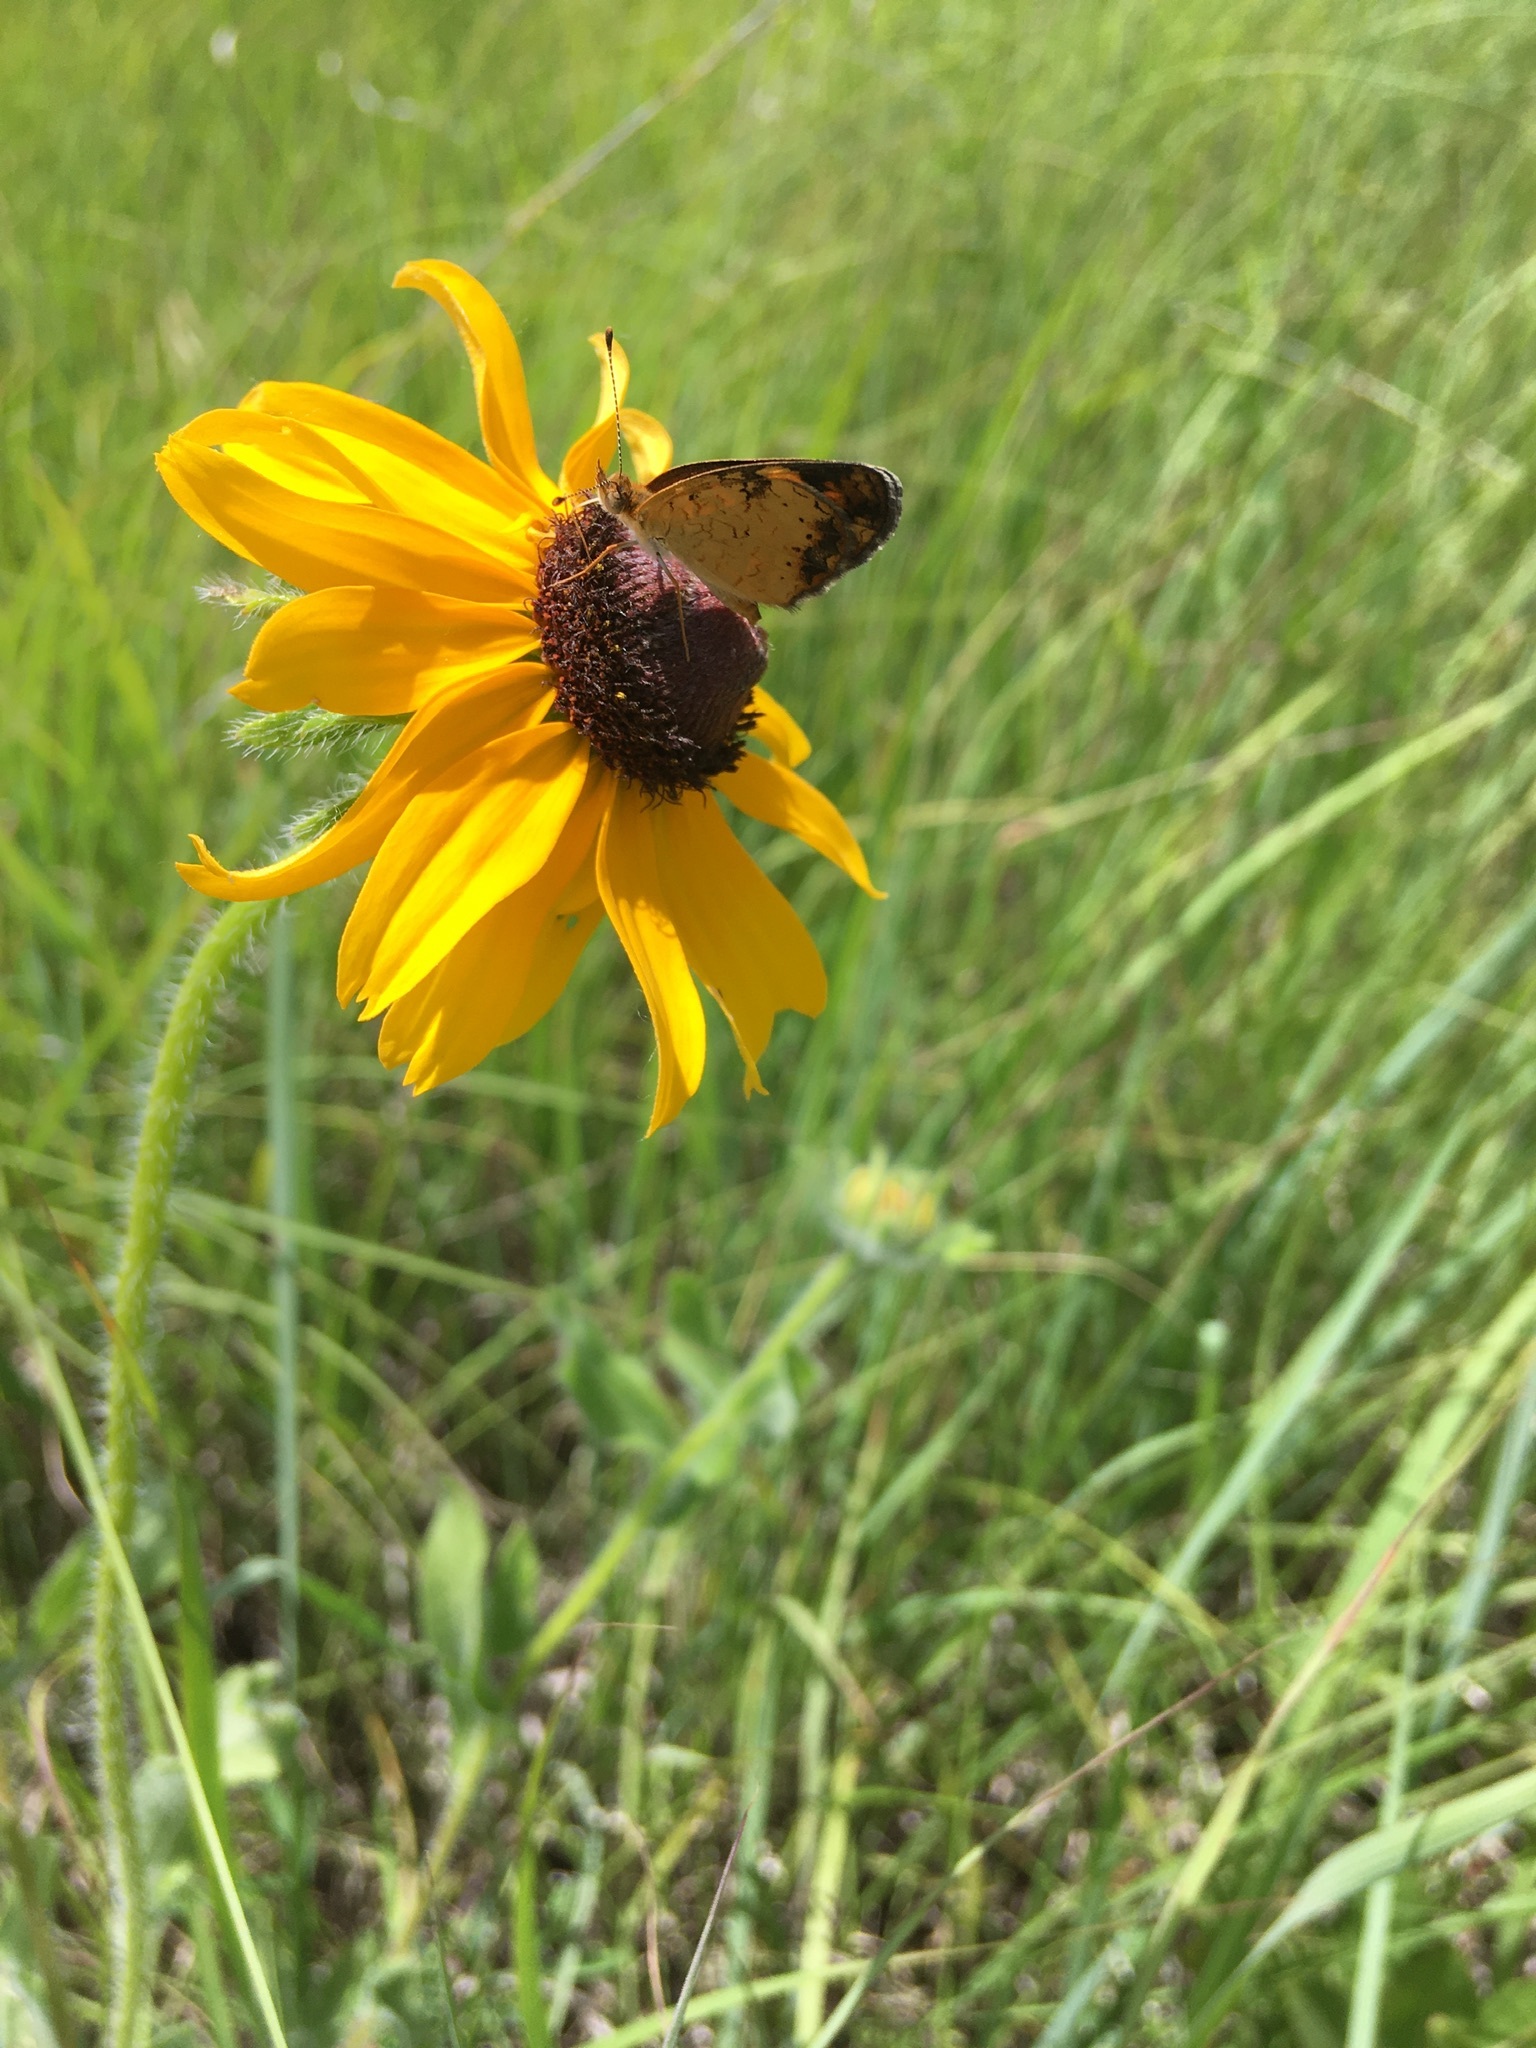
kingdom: Animalia
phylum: Arthropoda
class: Insecta
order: Lepidoptera
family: Nymphalidae
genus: Phyciodes
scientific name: Phyciodes tharos
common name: Pearl crescent
